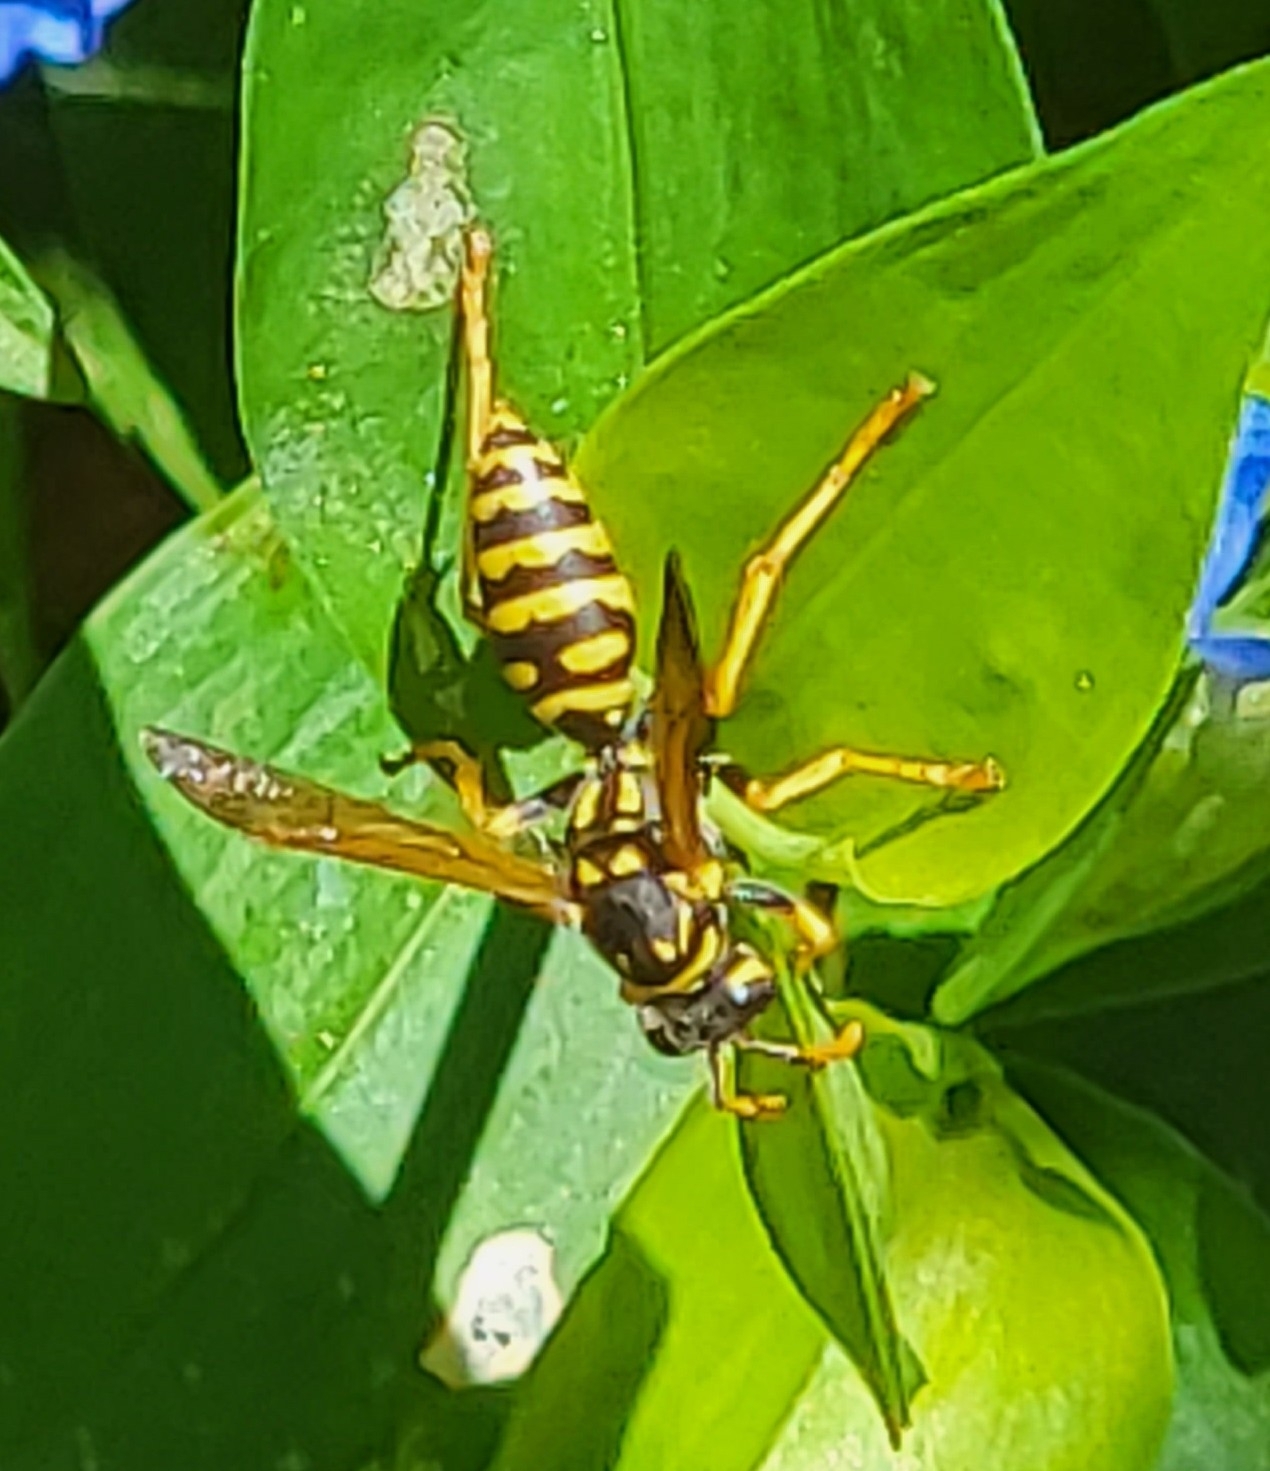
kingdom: Animalia
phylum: Arthropoda
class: Insecta
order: Hymenoptera
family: Eumenidae
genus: Polistes
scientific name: Polistes dominula
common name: Paper wasp
